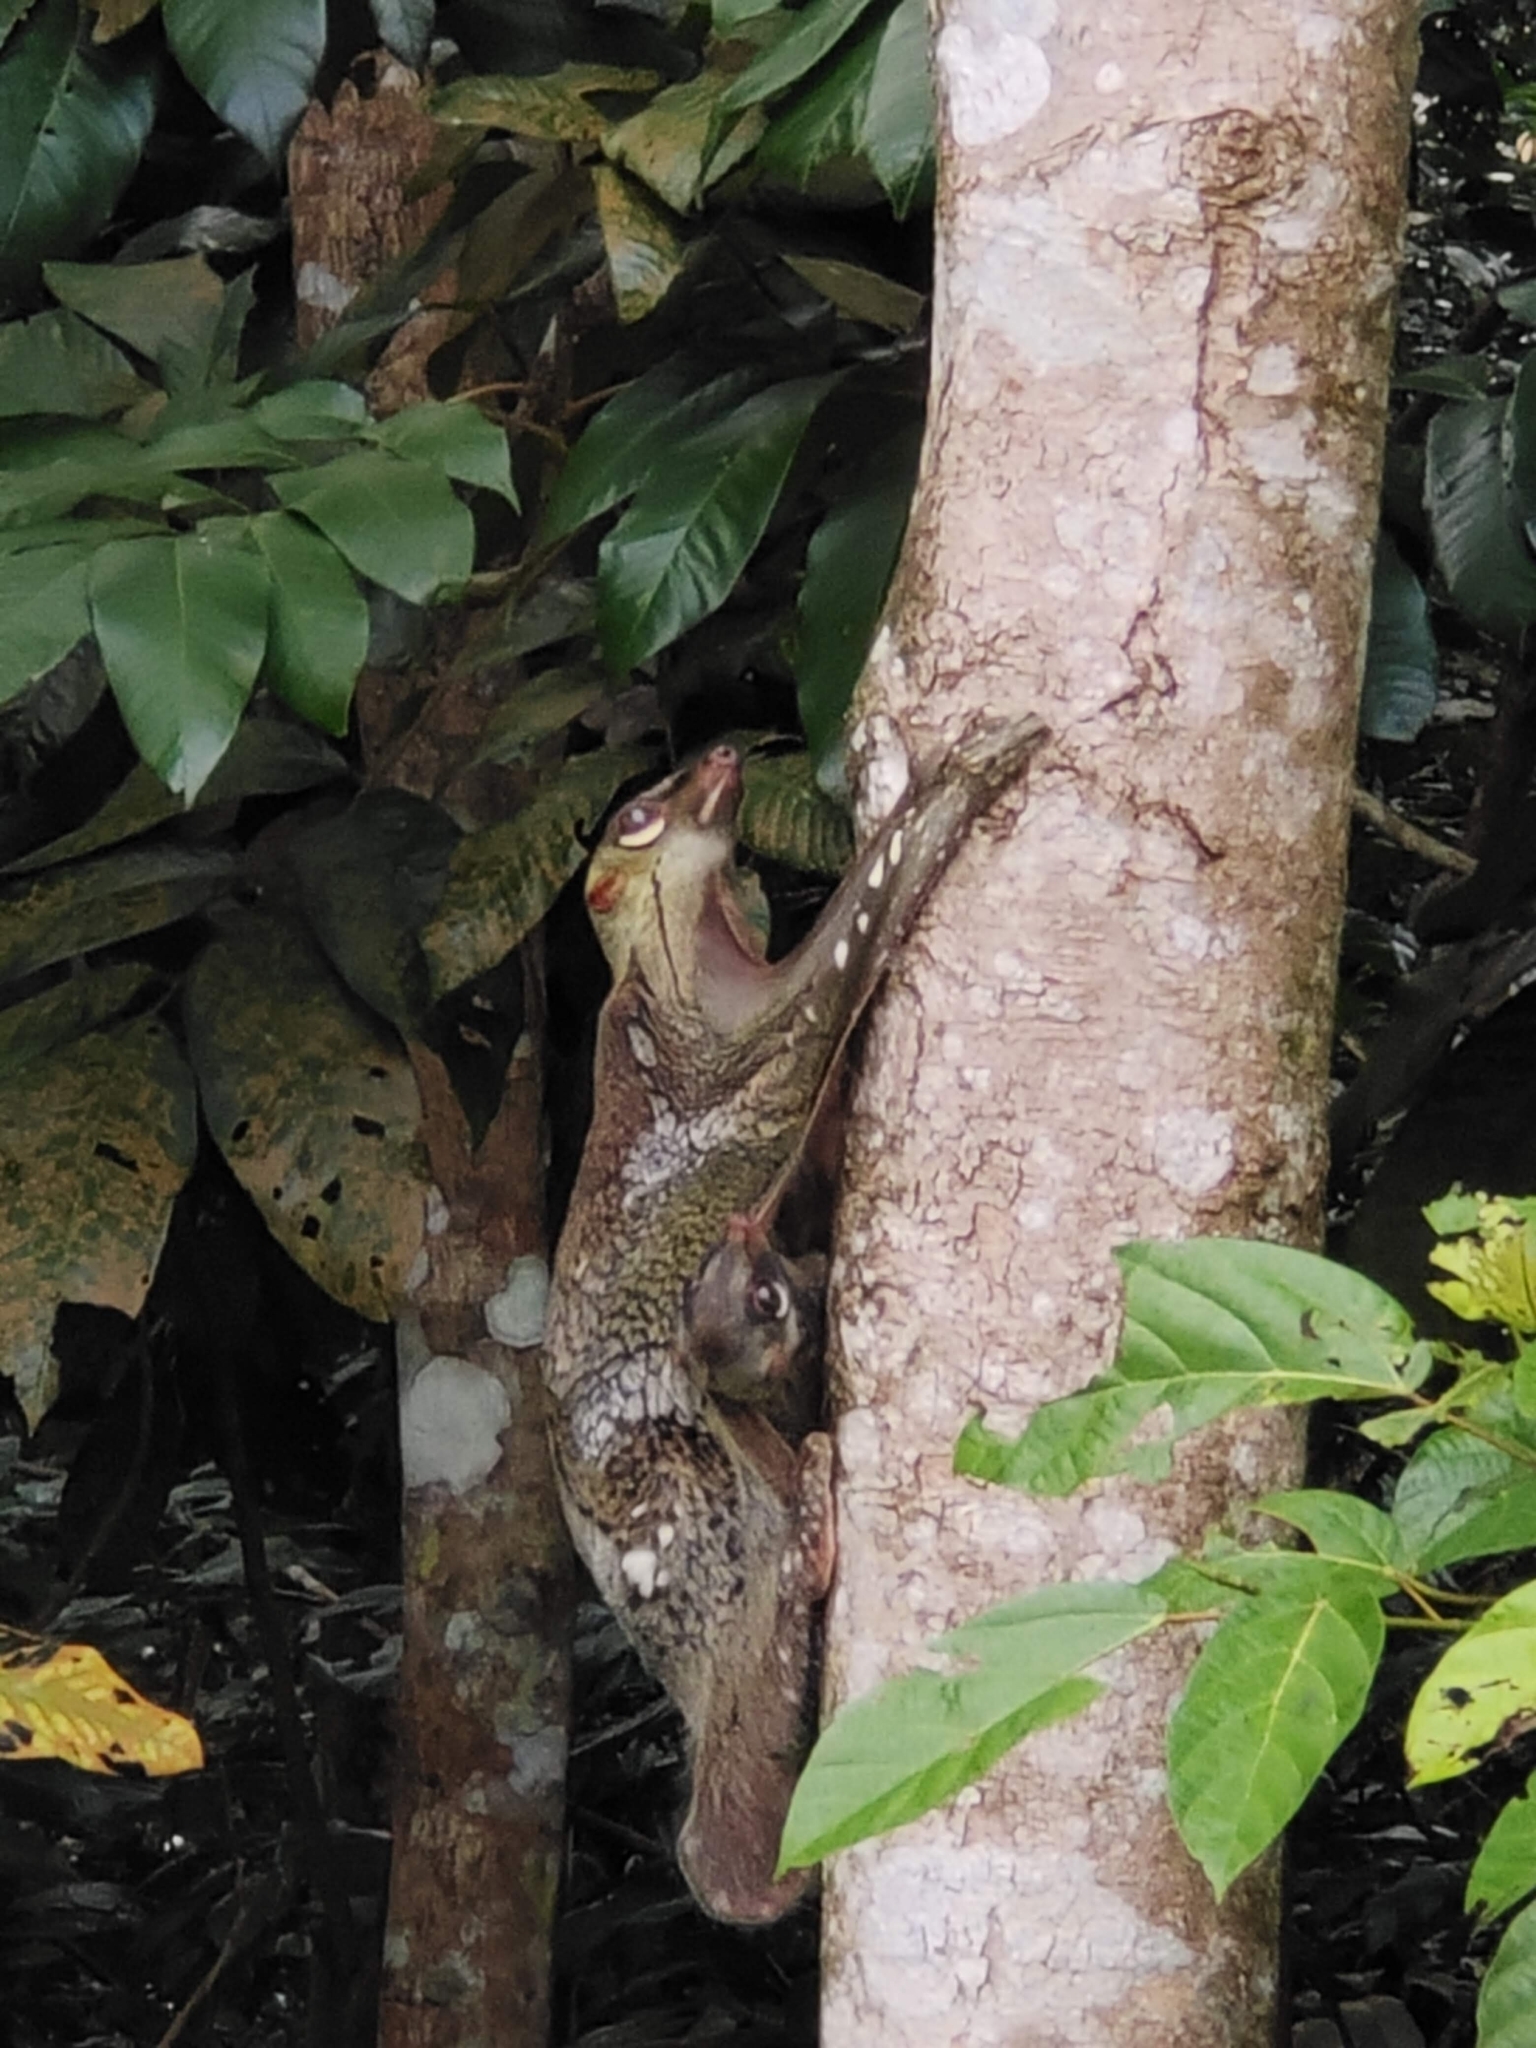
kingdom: Animalia
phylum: Chordata
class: Mammalia
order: Dermoptera
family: Cynocephalidae
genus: Galeopterus
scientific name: Galeopterus variegatus
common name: Sunda flying lemur
